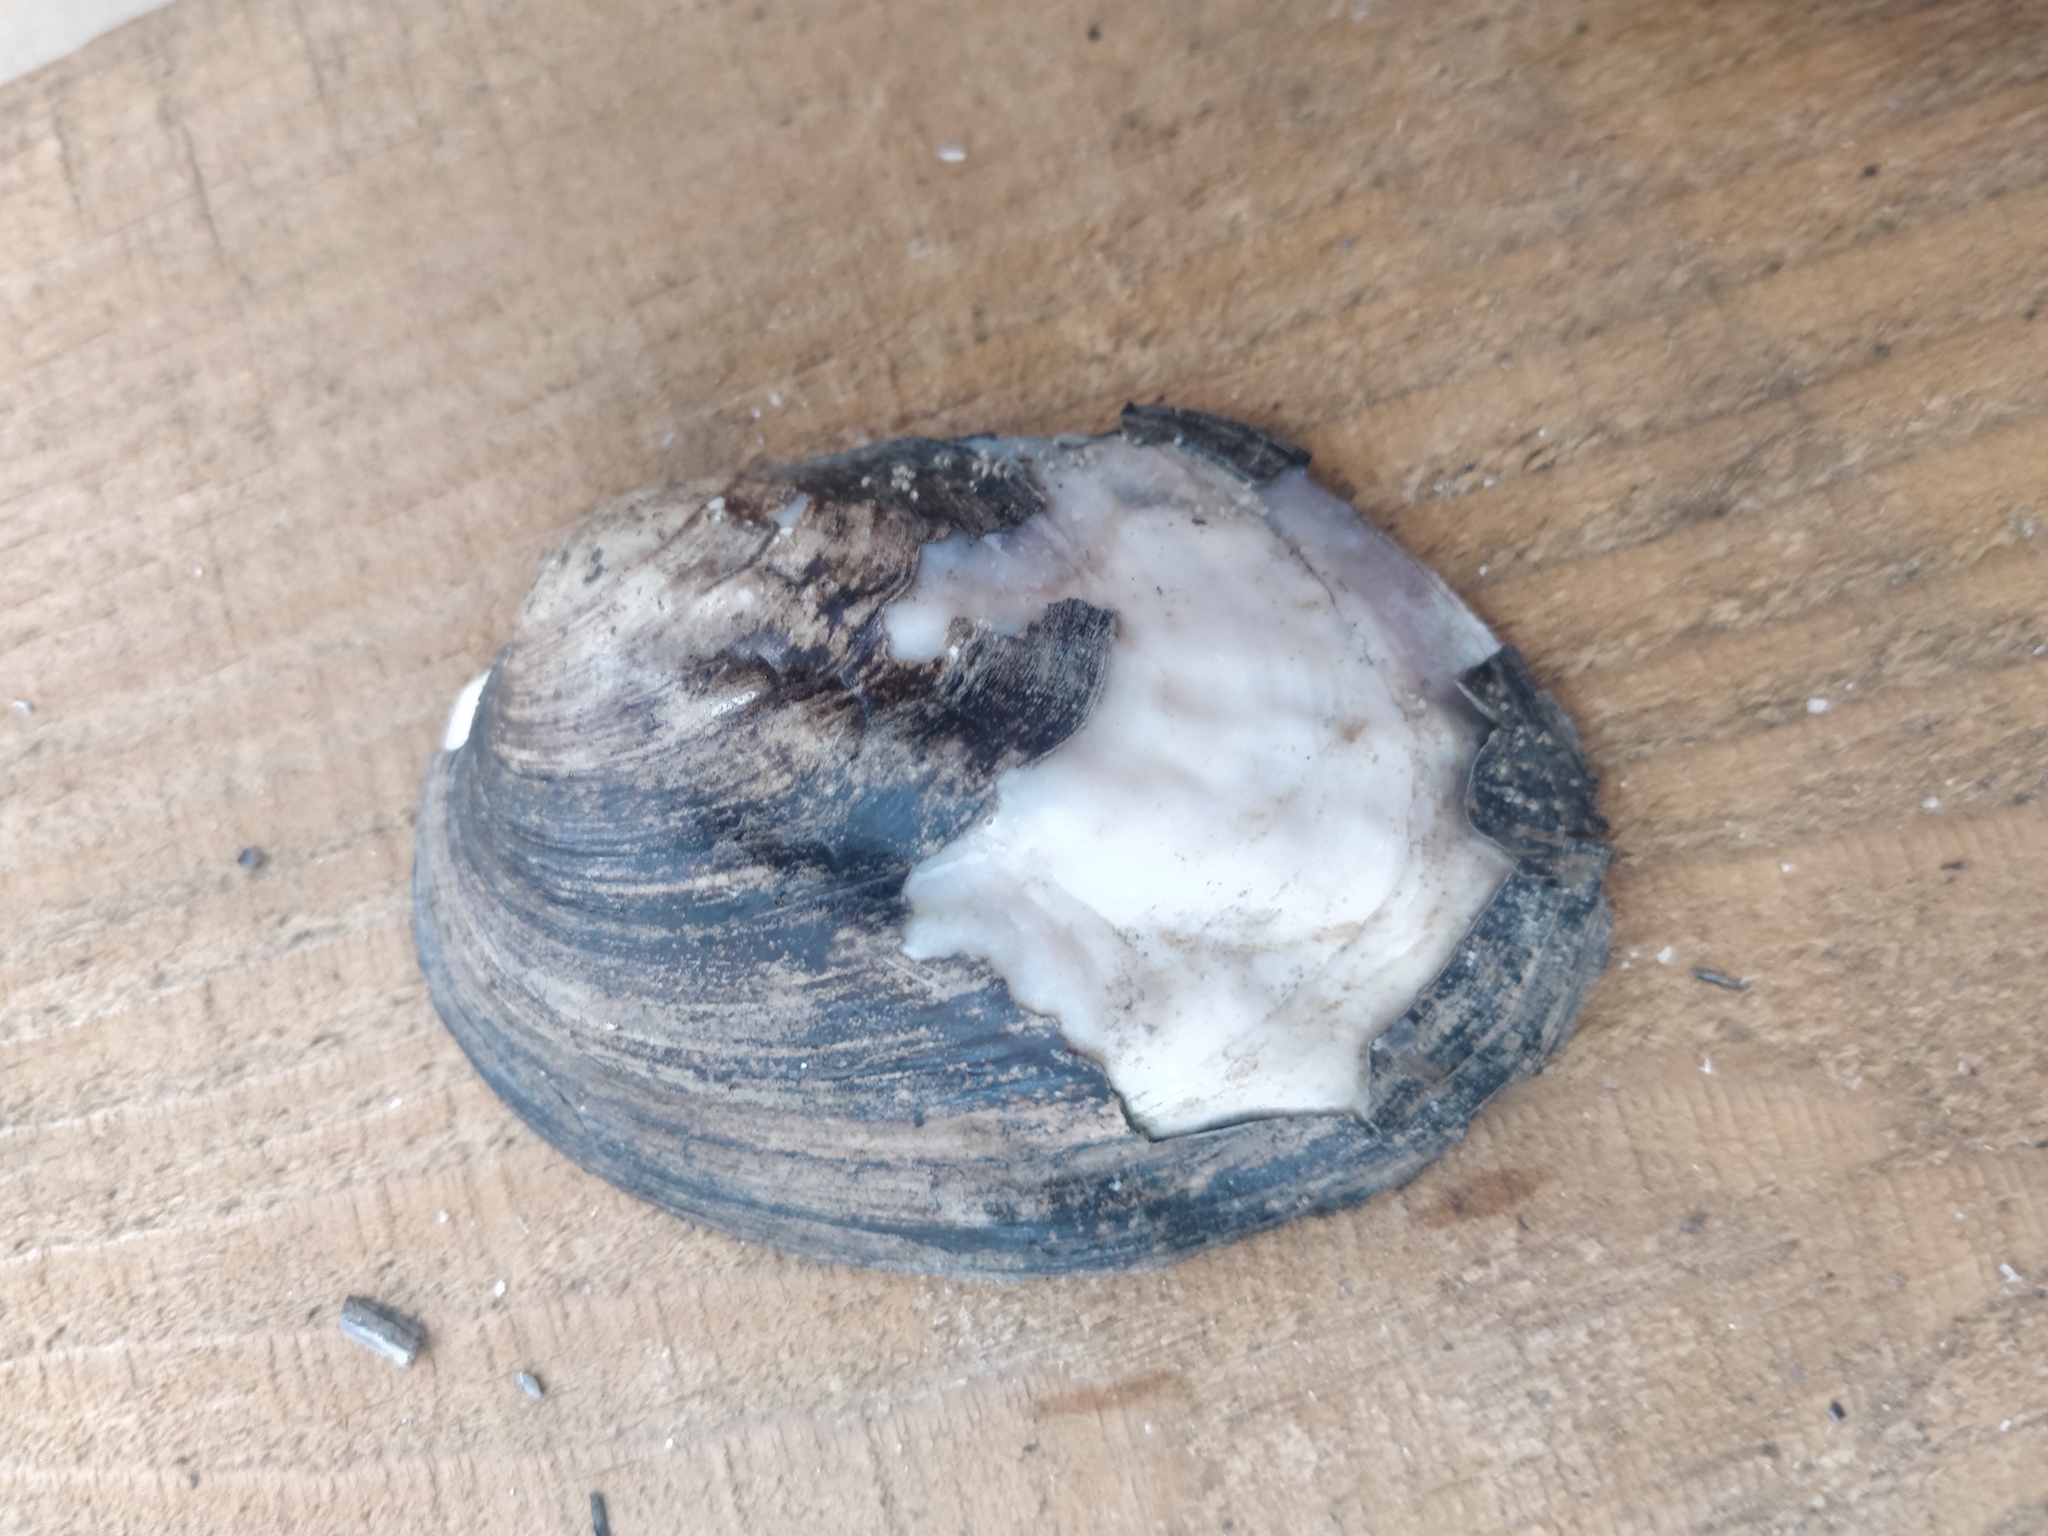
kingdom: Animalia
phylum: Mollusca
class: Bivalvia
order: Unionida
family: Unionidae
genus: Amblema
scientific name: Amblema plicata
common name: Threeridge
